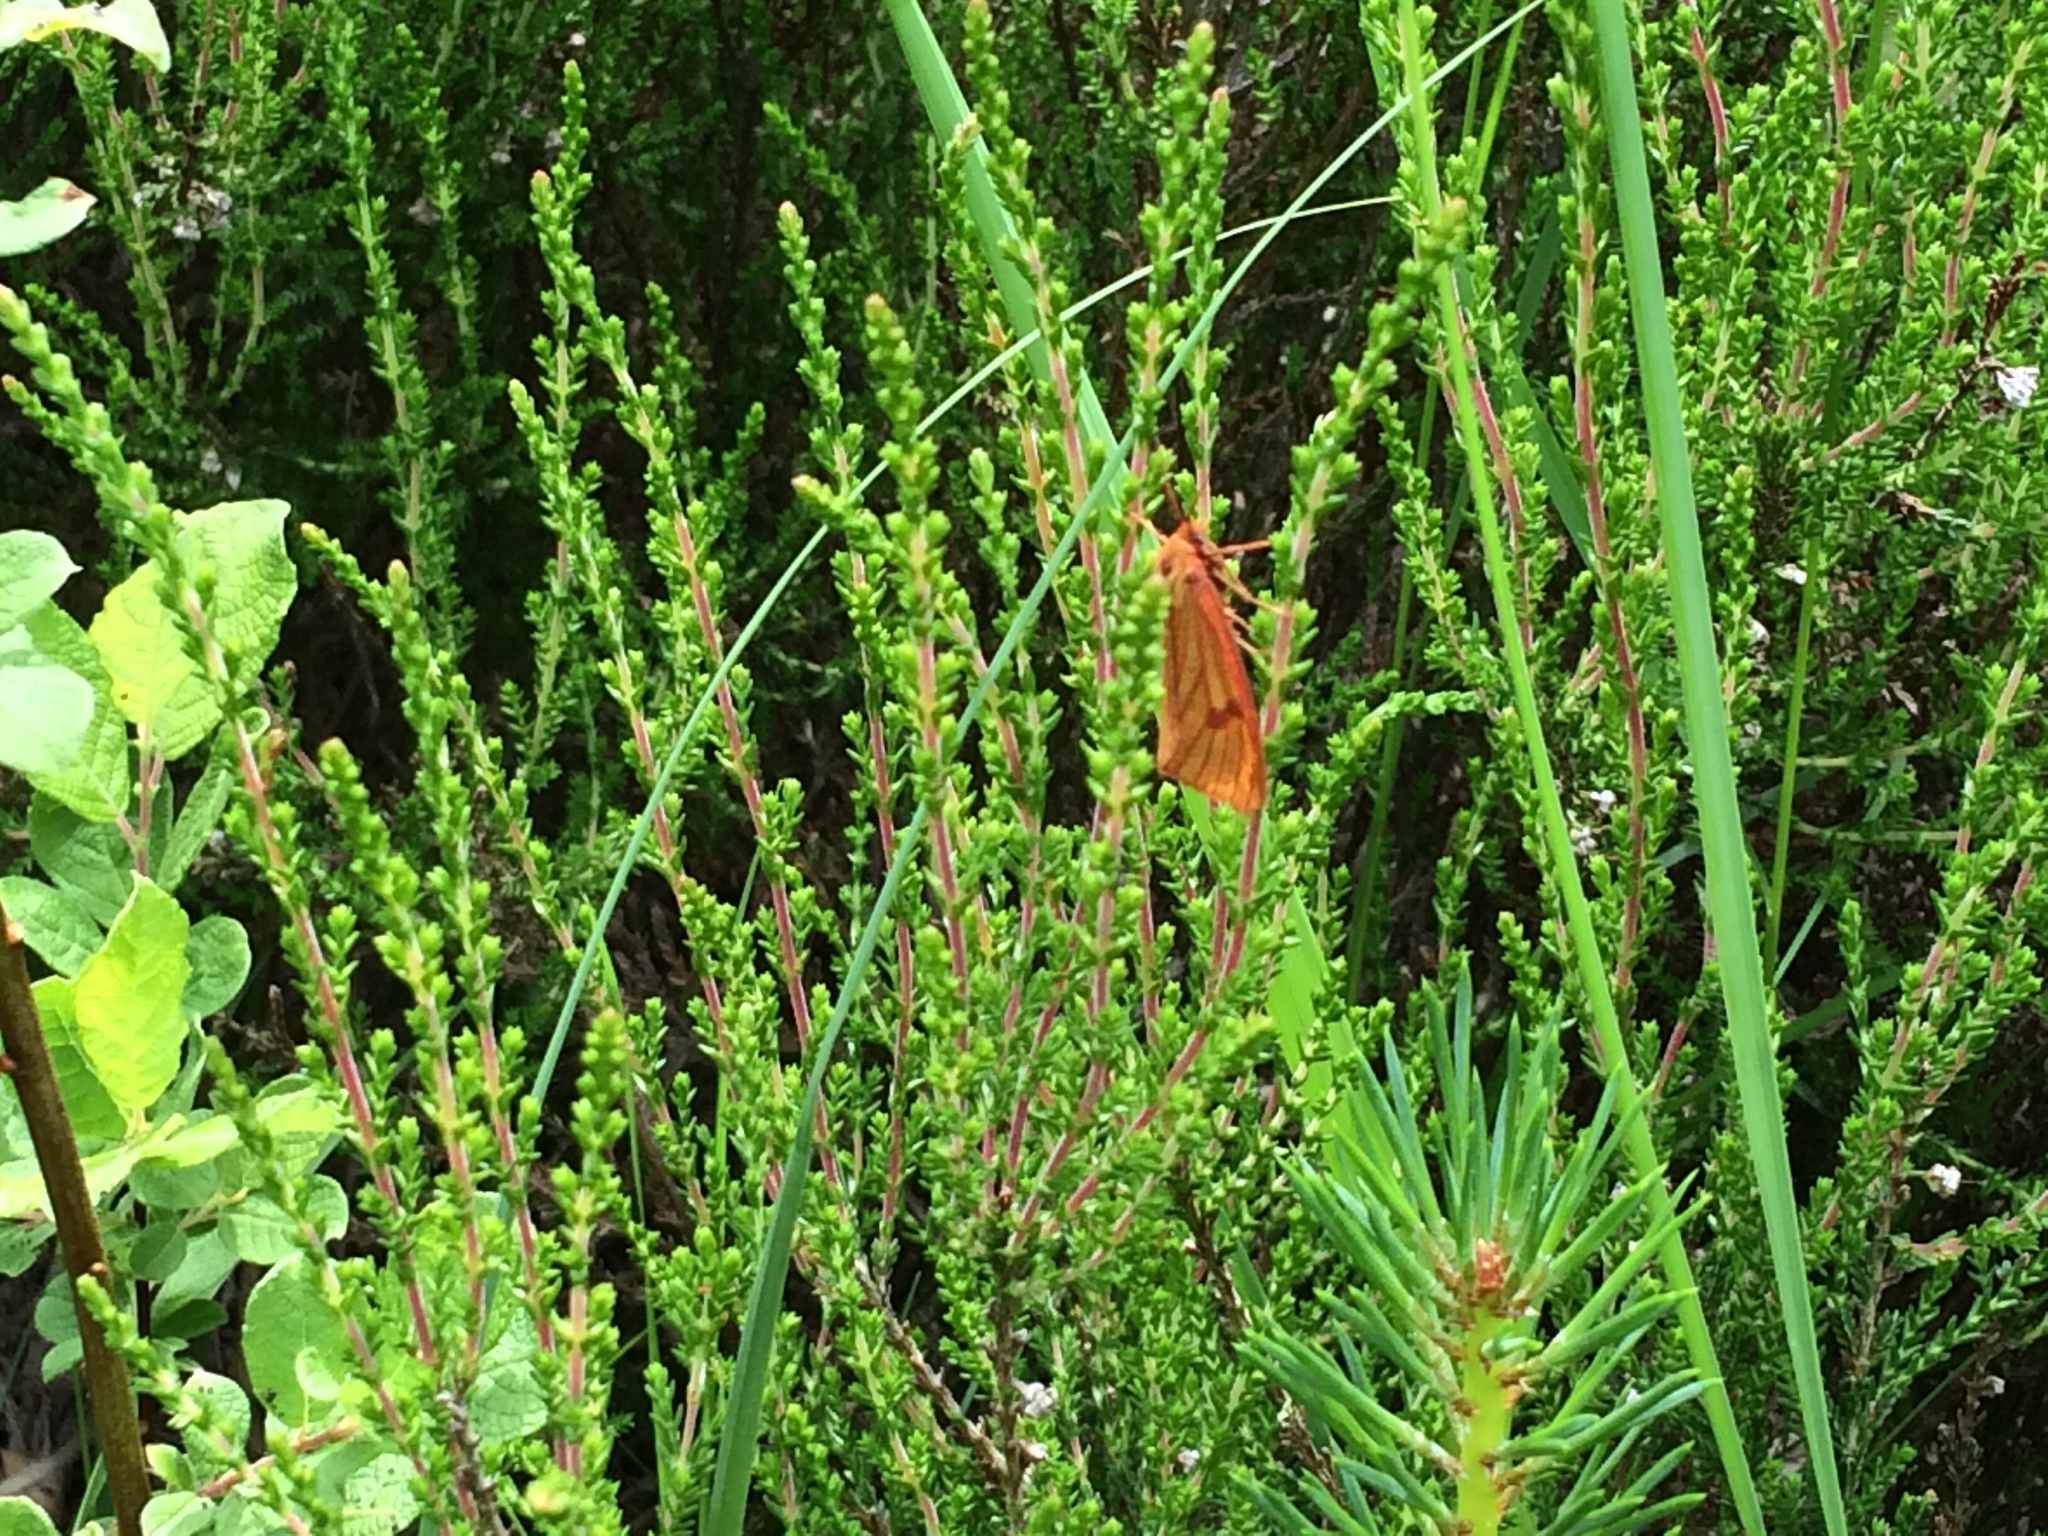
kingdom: Animalia
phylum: Arthropoda
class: Insecta
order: Lepidoptera
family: Erebidae
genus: Diacrisia
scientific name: Diacrisia sannio
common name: Clouded buff
